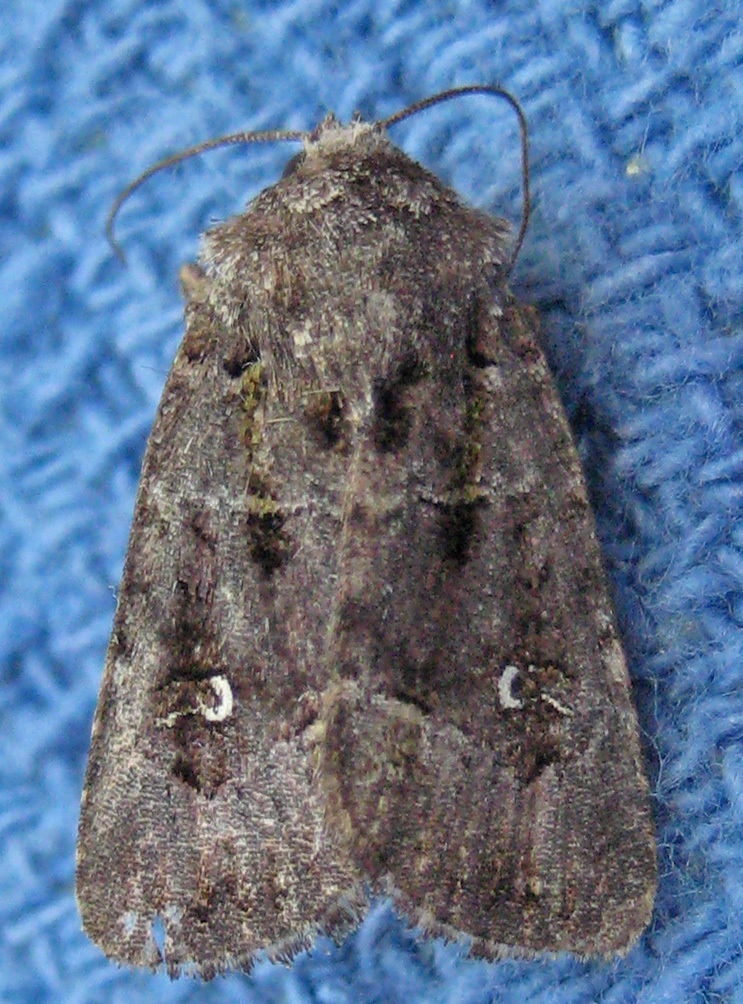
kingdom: Animalia
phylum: Arthropoda
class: Insecta
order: Lepidoptera
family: Noctuidae
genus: Lacinipolia
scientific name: Lacinipolia renigera
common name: Kidney-spotted minor
